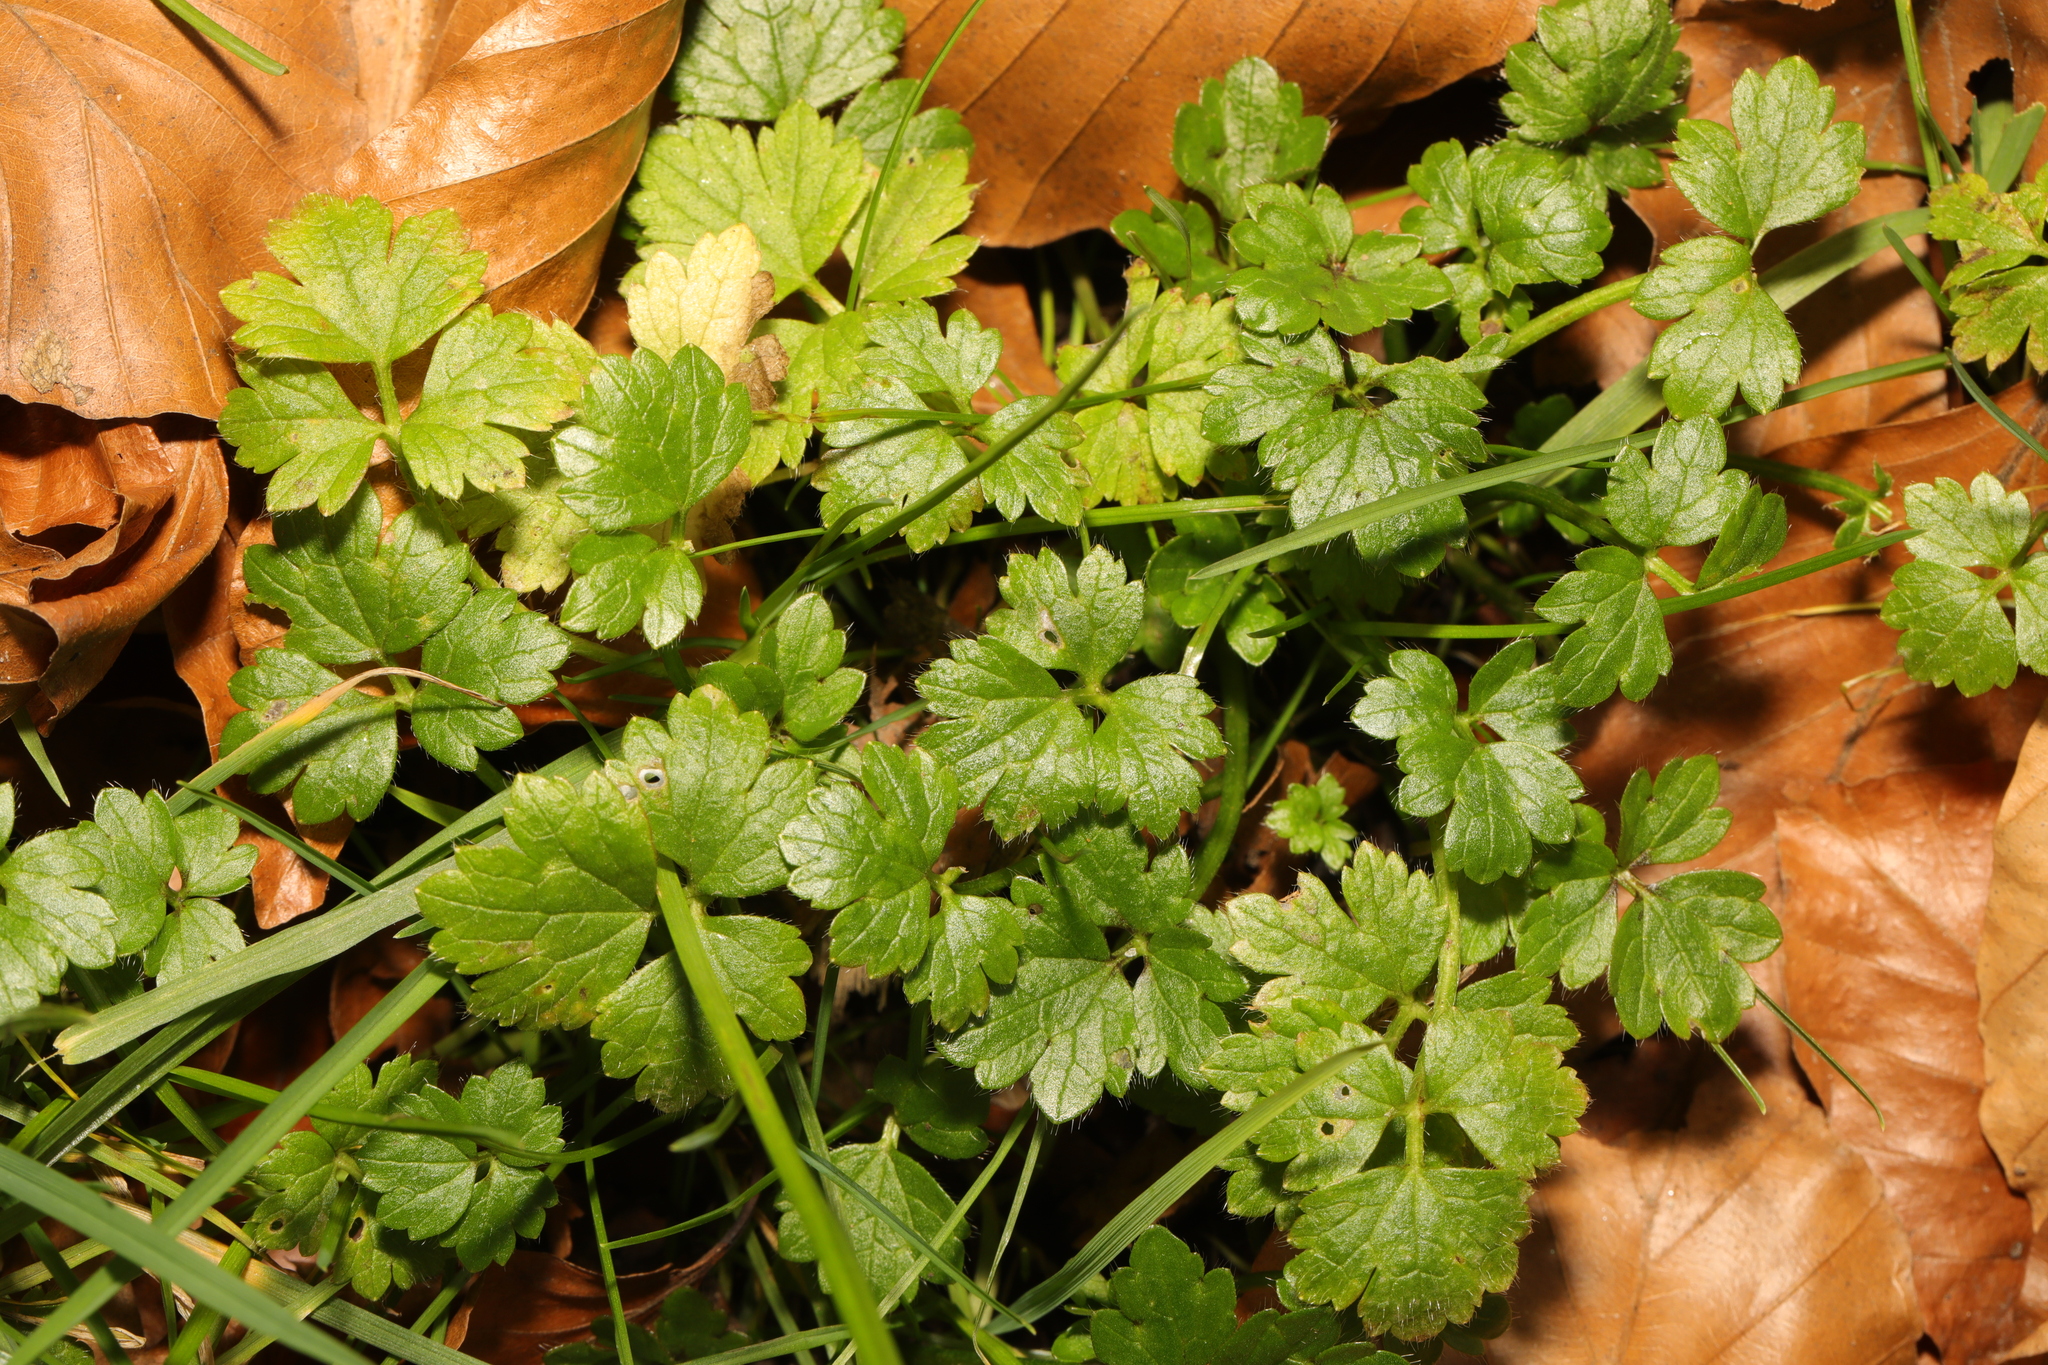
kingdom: Plantae
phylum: Tracheophyta
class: Magnoliopsida
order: Ranunculales
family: Ranunculaceae
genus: Ranunculus
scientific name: Ranunculus repens
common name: Creeping buttercup
